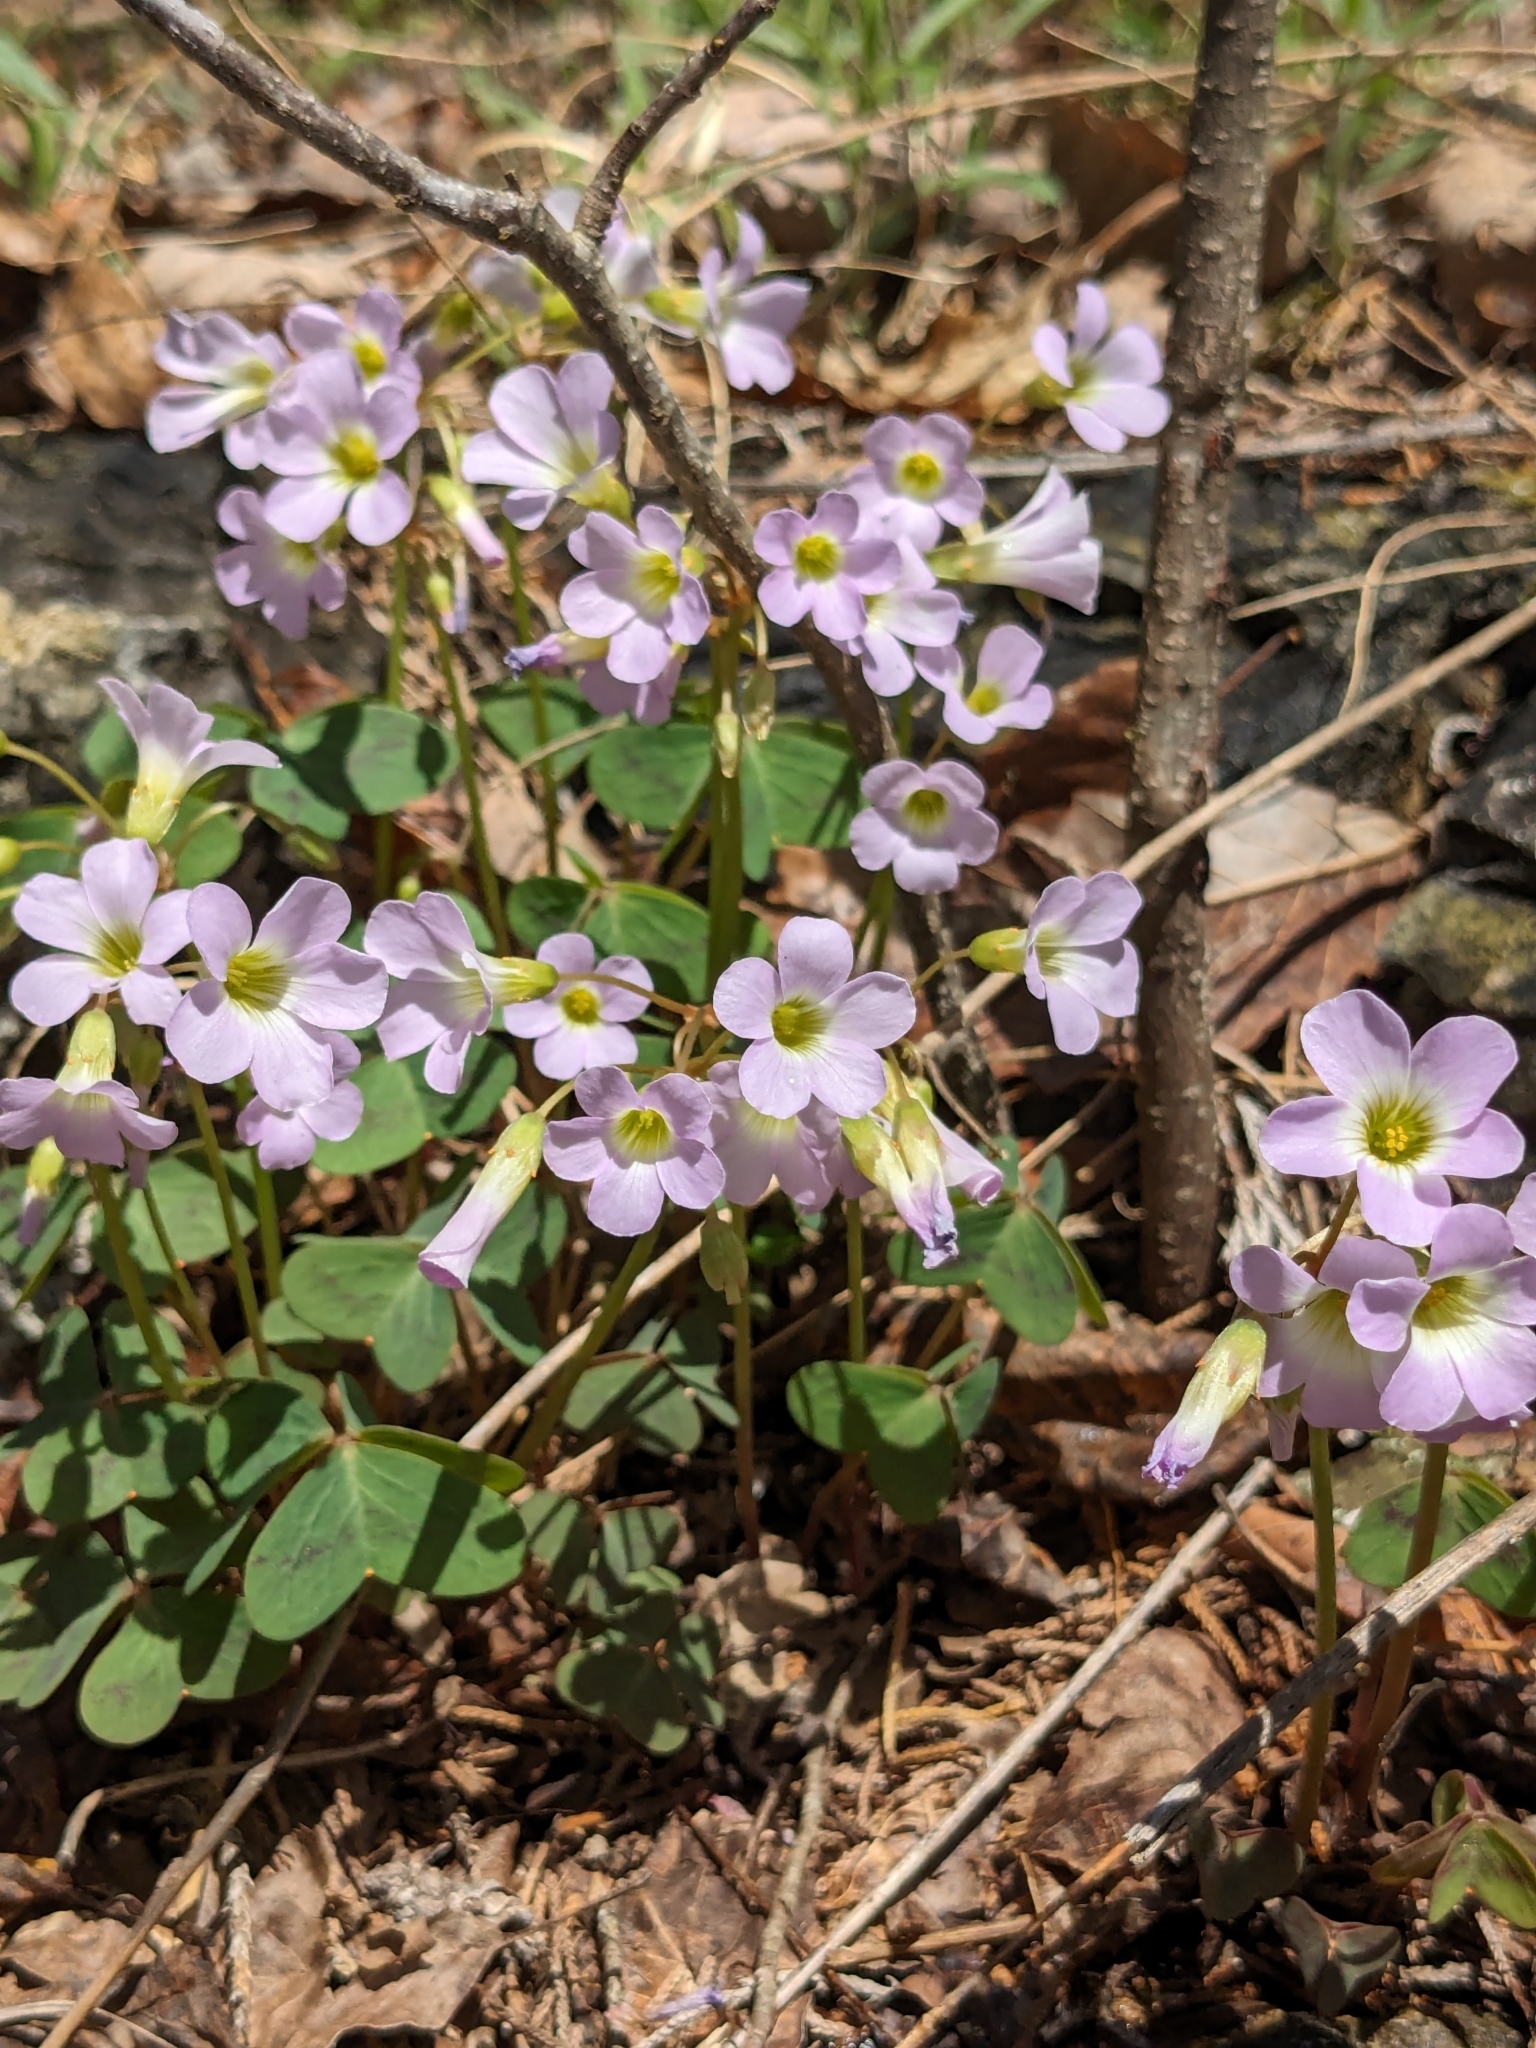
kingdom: Plantae
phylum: Tracheophyta
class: Magnoliopsida
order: Oxalidales
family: Oxalidaceae
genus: Oxalis
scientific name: Oxalis violacea
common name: Violet wood-sorrel
